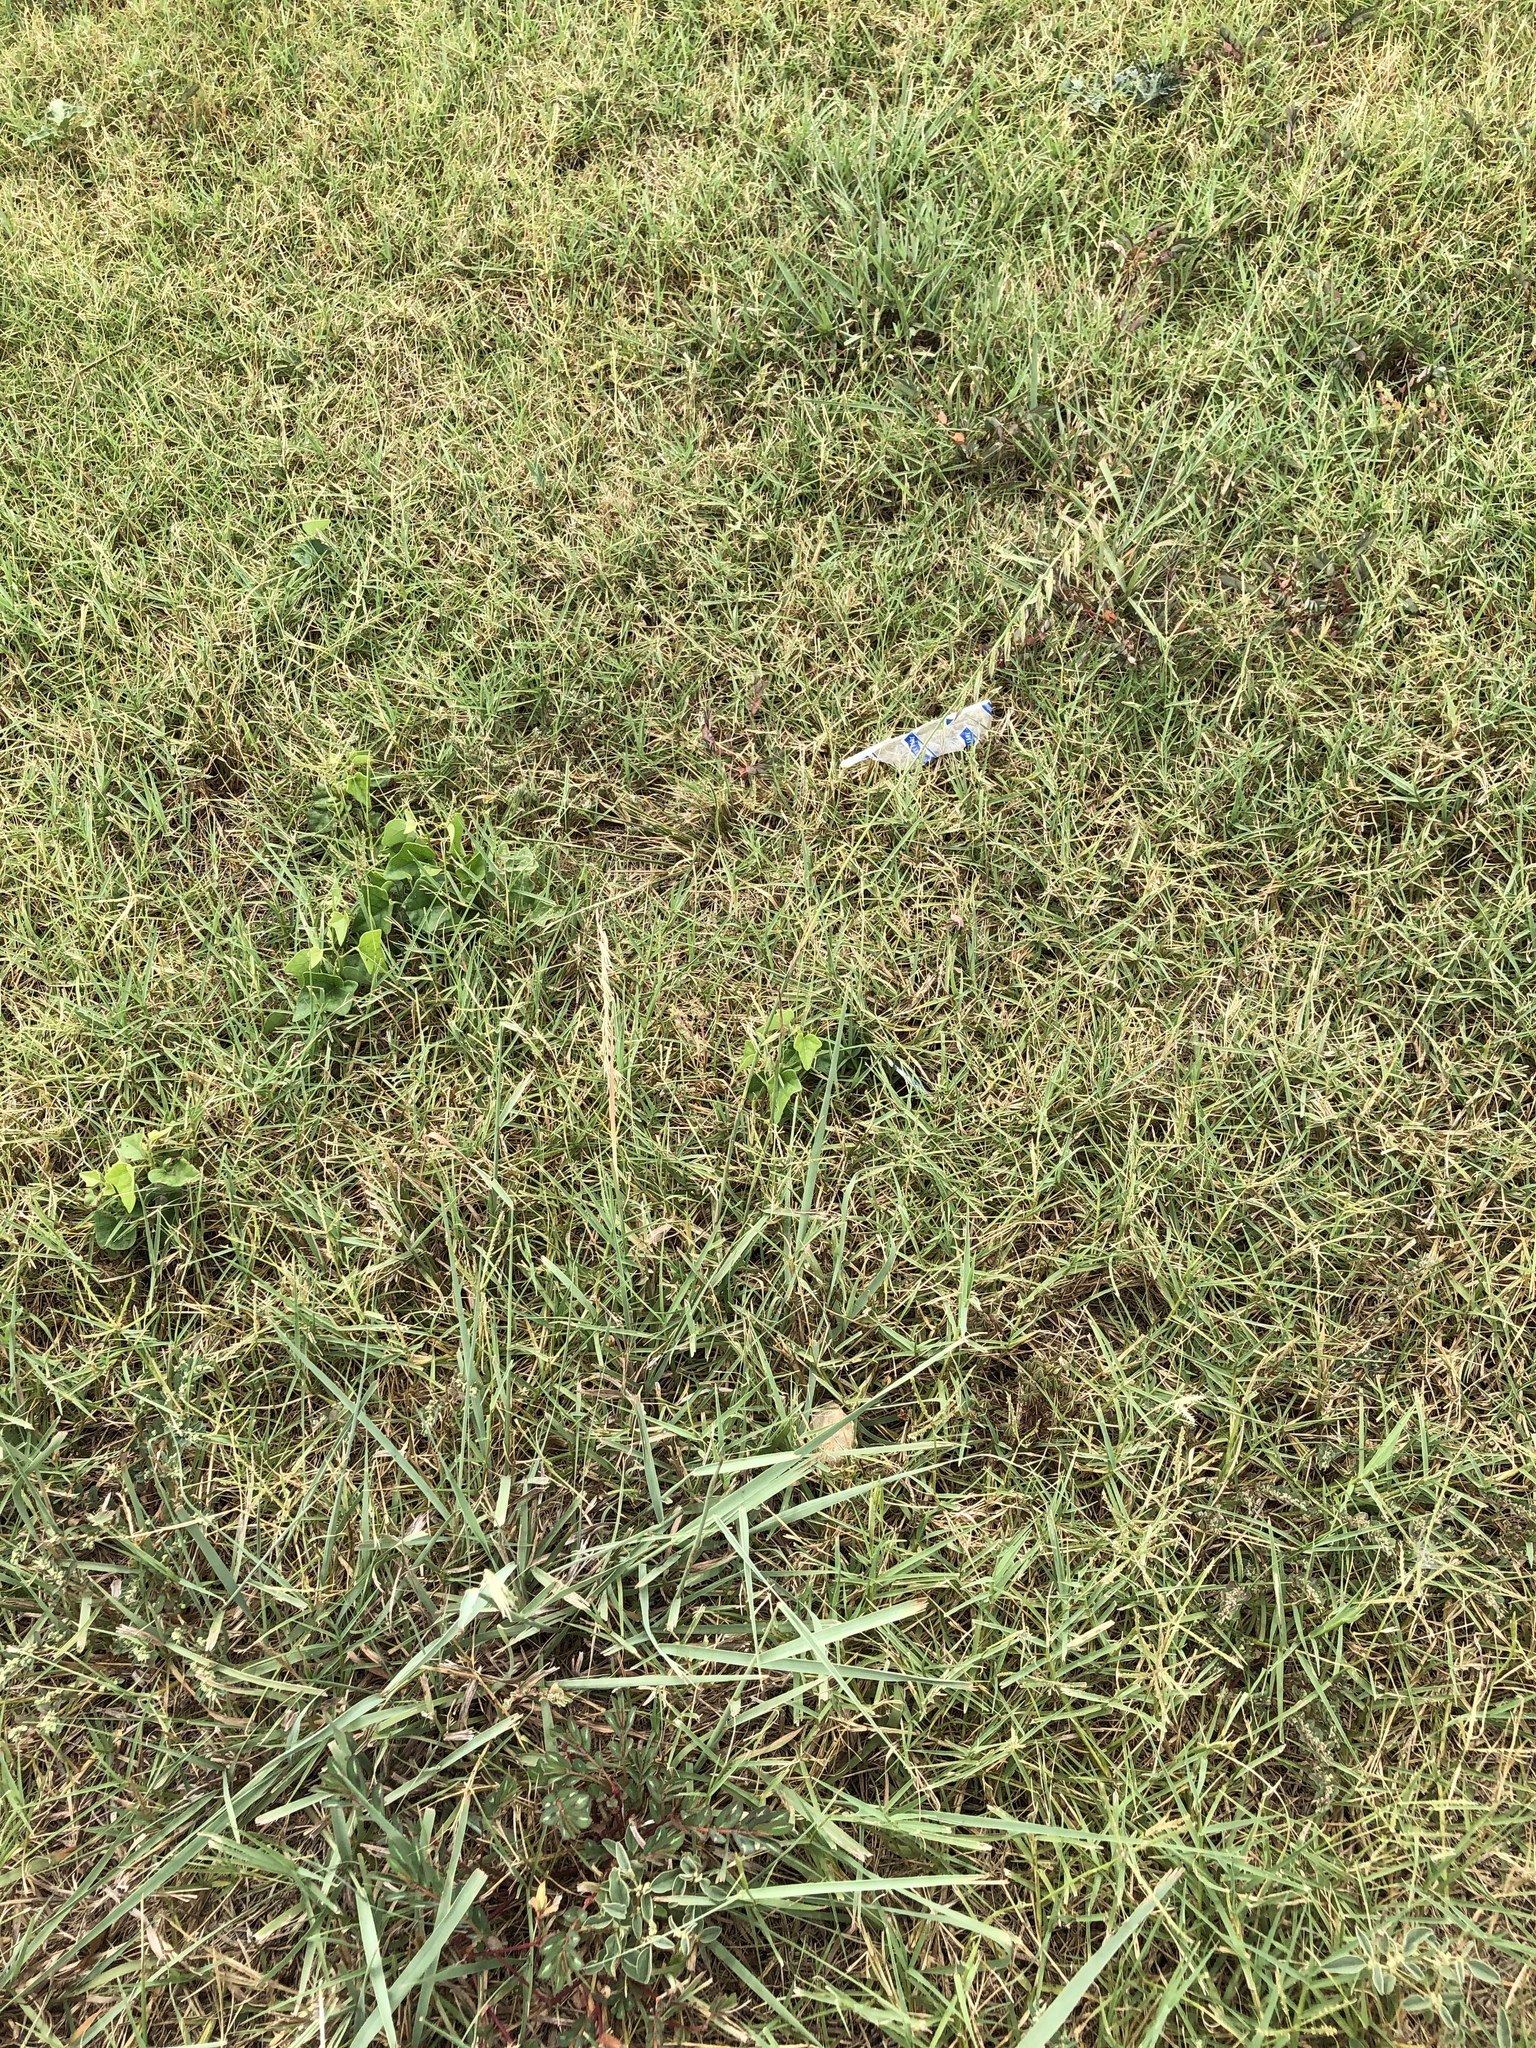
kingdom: Plantae
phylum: Tracheophyta
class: Liliopsida
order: Poales
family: Poaceae
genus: Bouteloua
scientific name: Bouteloua curtipendula
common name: Side-oats grama
